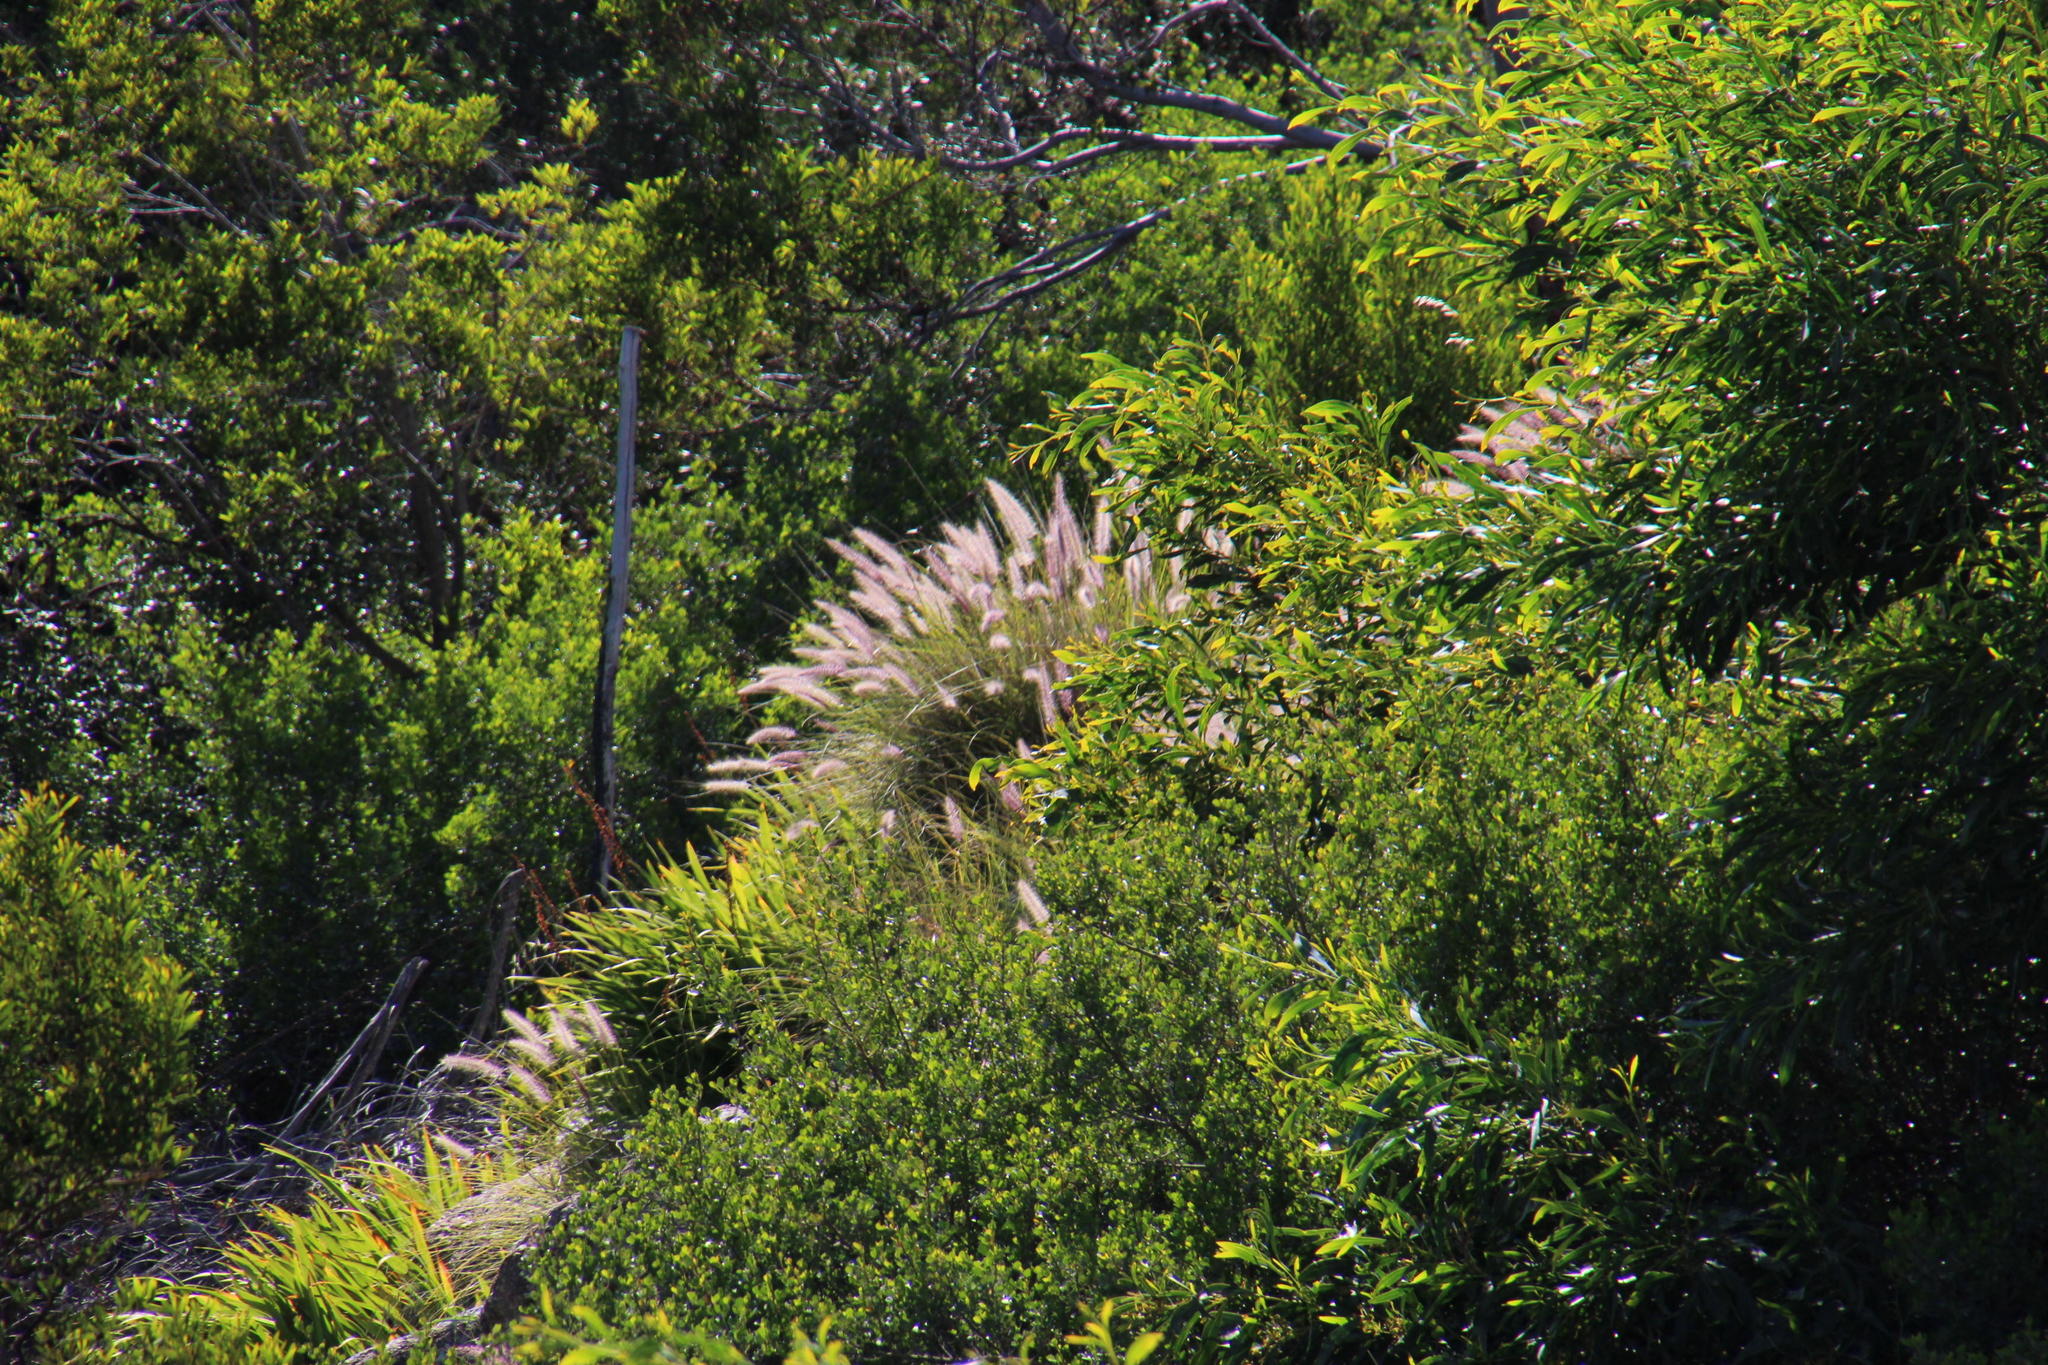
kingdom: Plantae
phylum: Tracheophyta
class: Liliopsida
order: Poales
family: Poaceae
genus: Cenchrus
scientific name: Cenchrus setaceus
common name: Crimson fountaingrass
